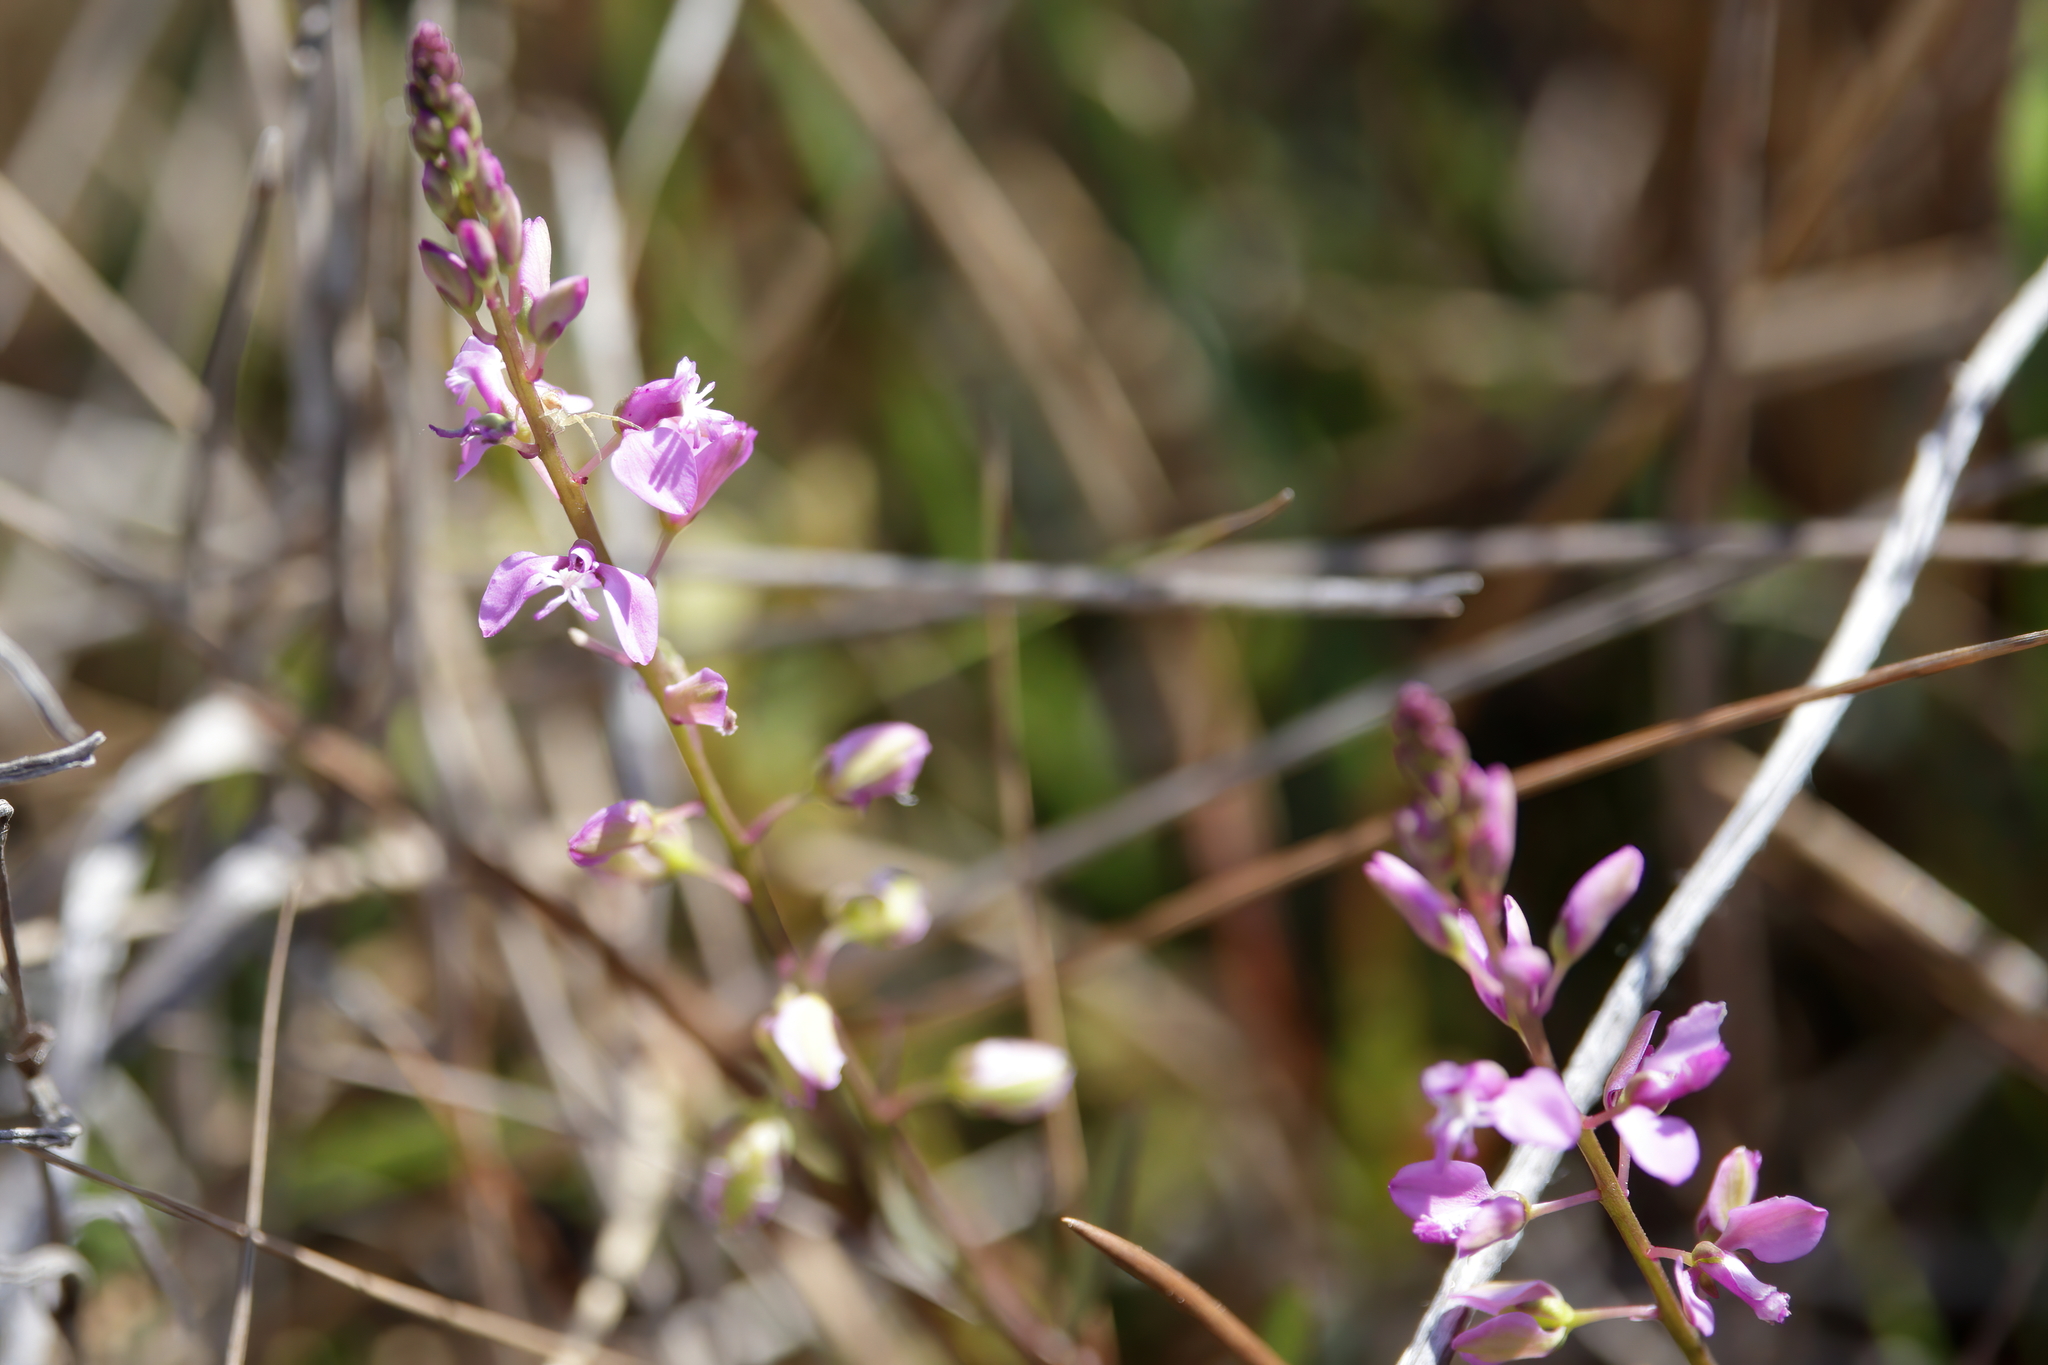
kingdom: Plantae
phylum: Tracheophyta
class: Magnoliopsida
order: Fabales
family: Polygalaceae
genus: Polygala
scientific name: Polygala polygama
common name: Bitter milkwort
